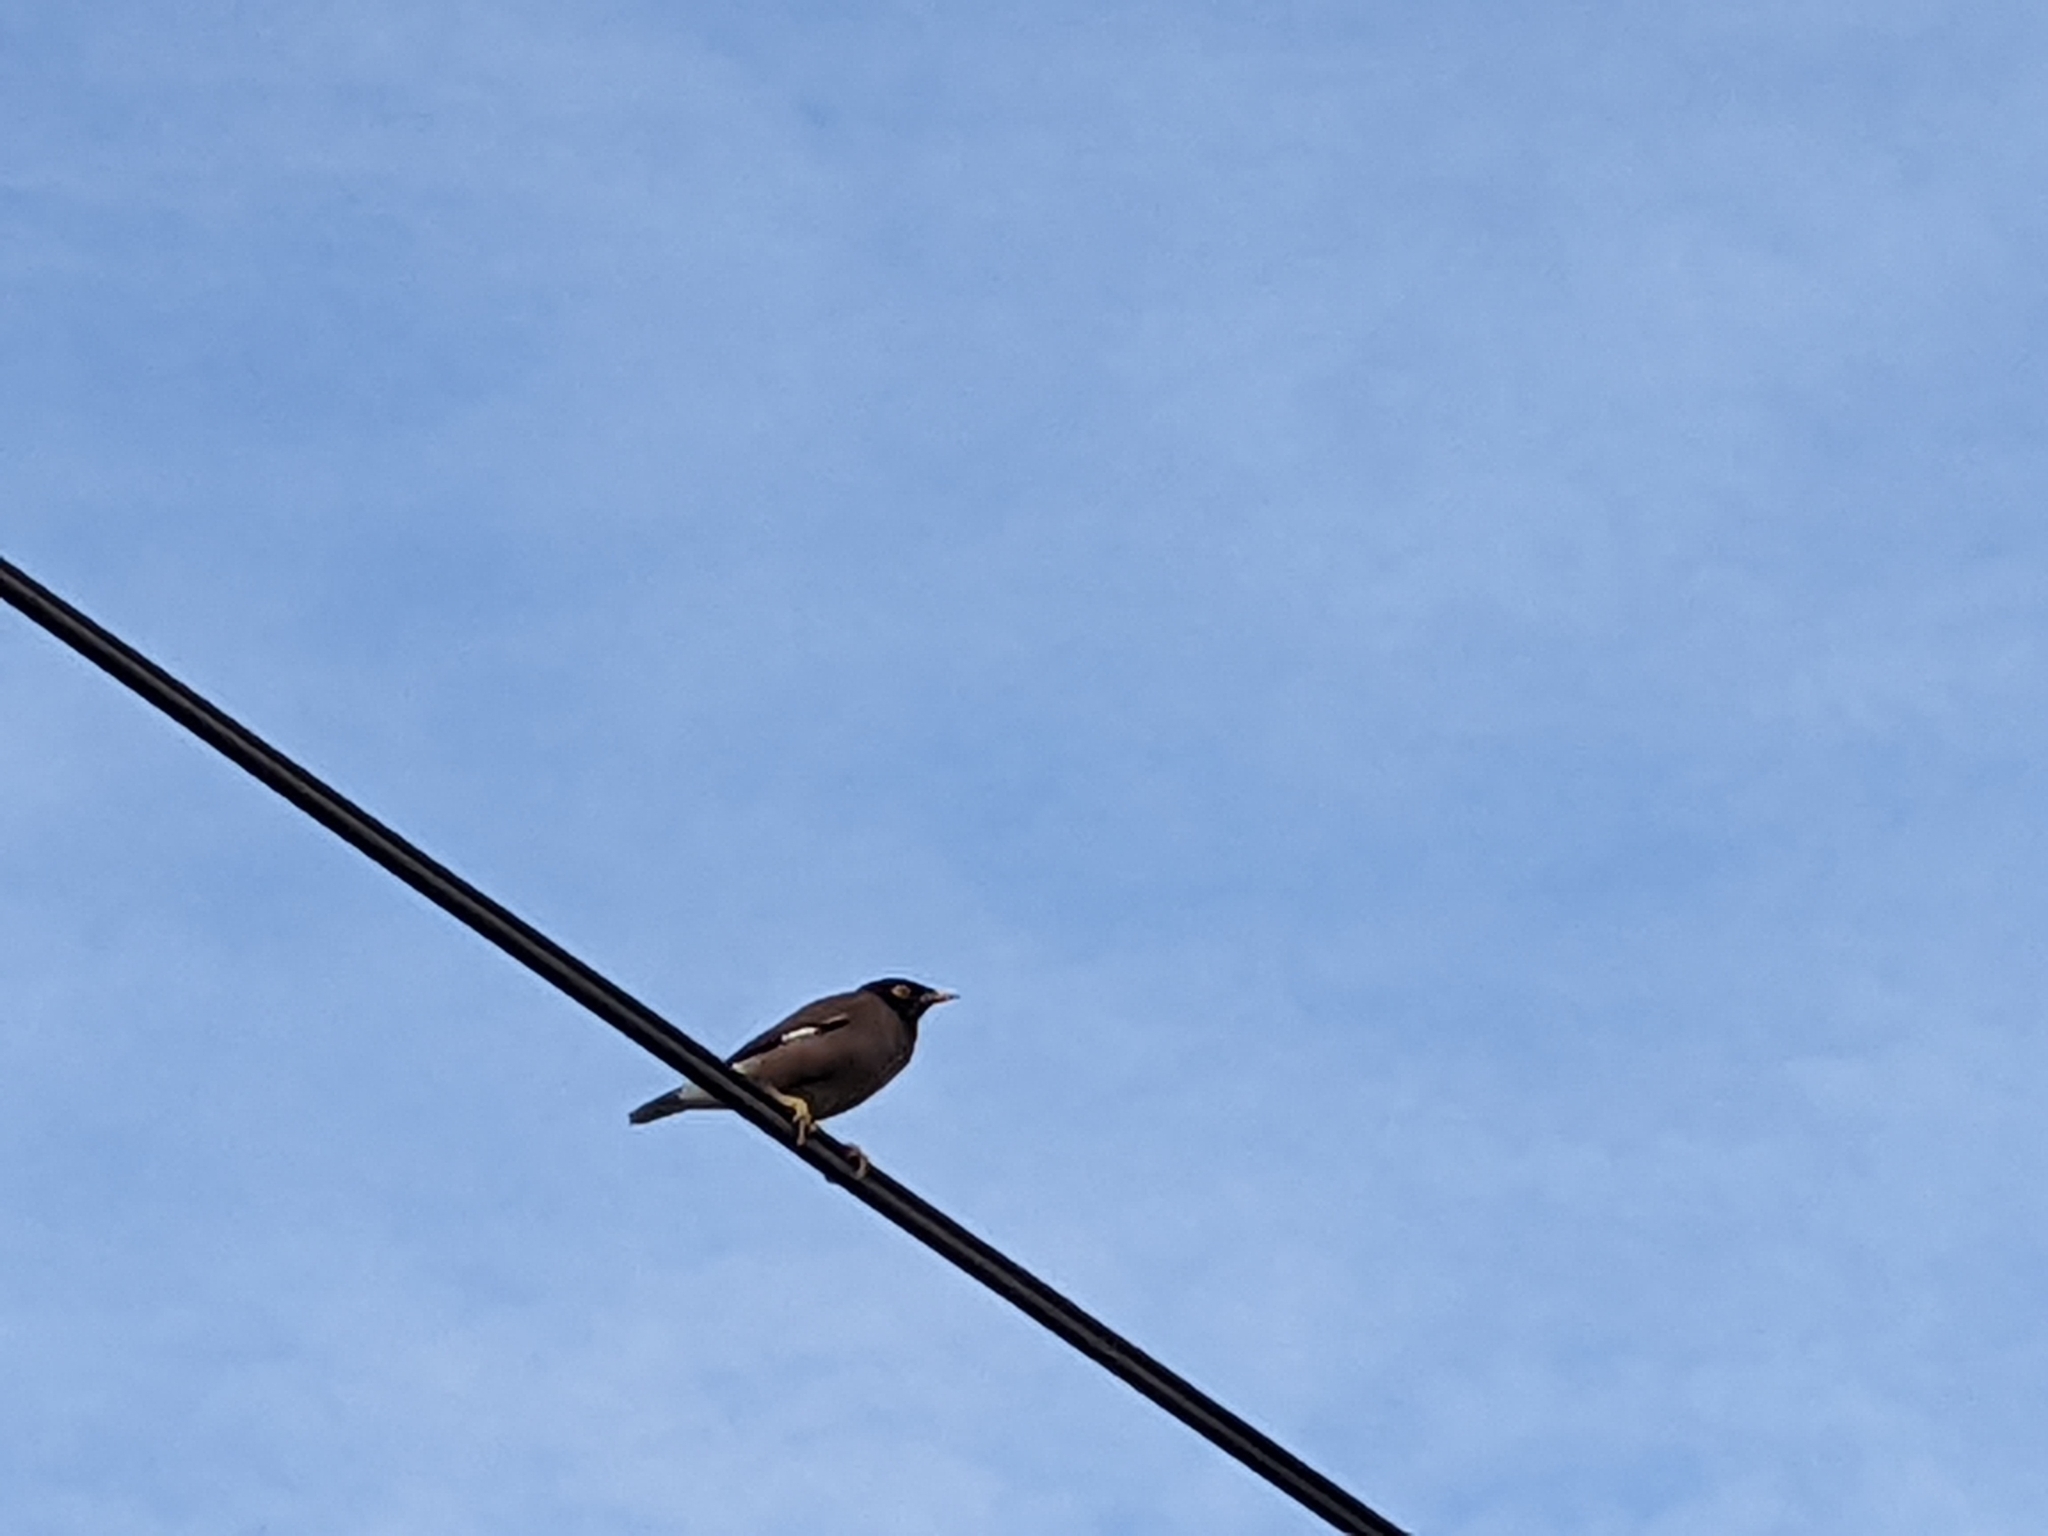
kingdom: Animalia
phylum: Chordata
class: Aves
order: Passeriformes
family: Sturnidae
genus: Acridotheres
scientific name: Acridotheres tristis
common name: Common myna
